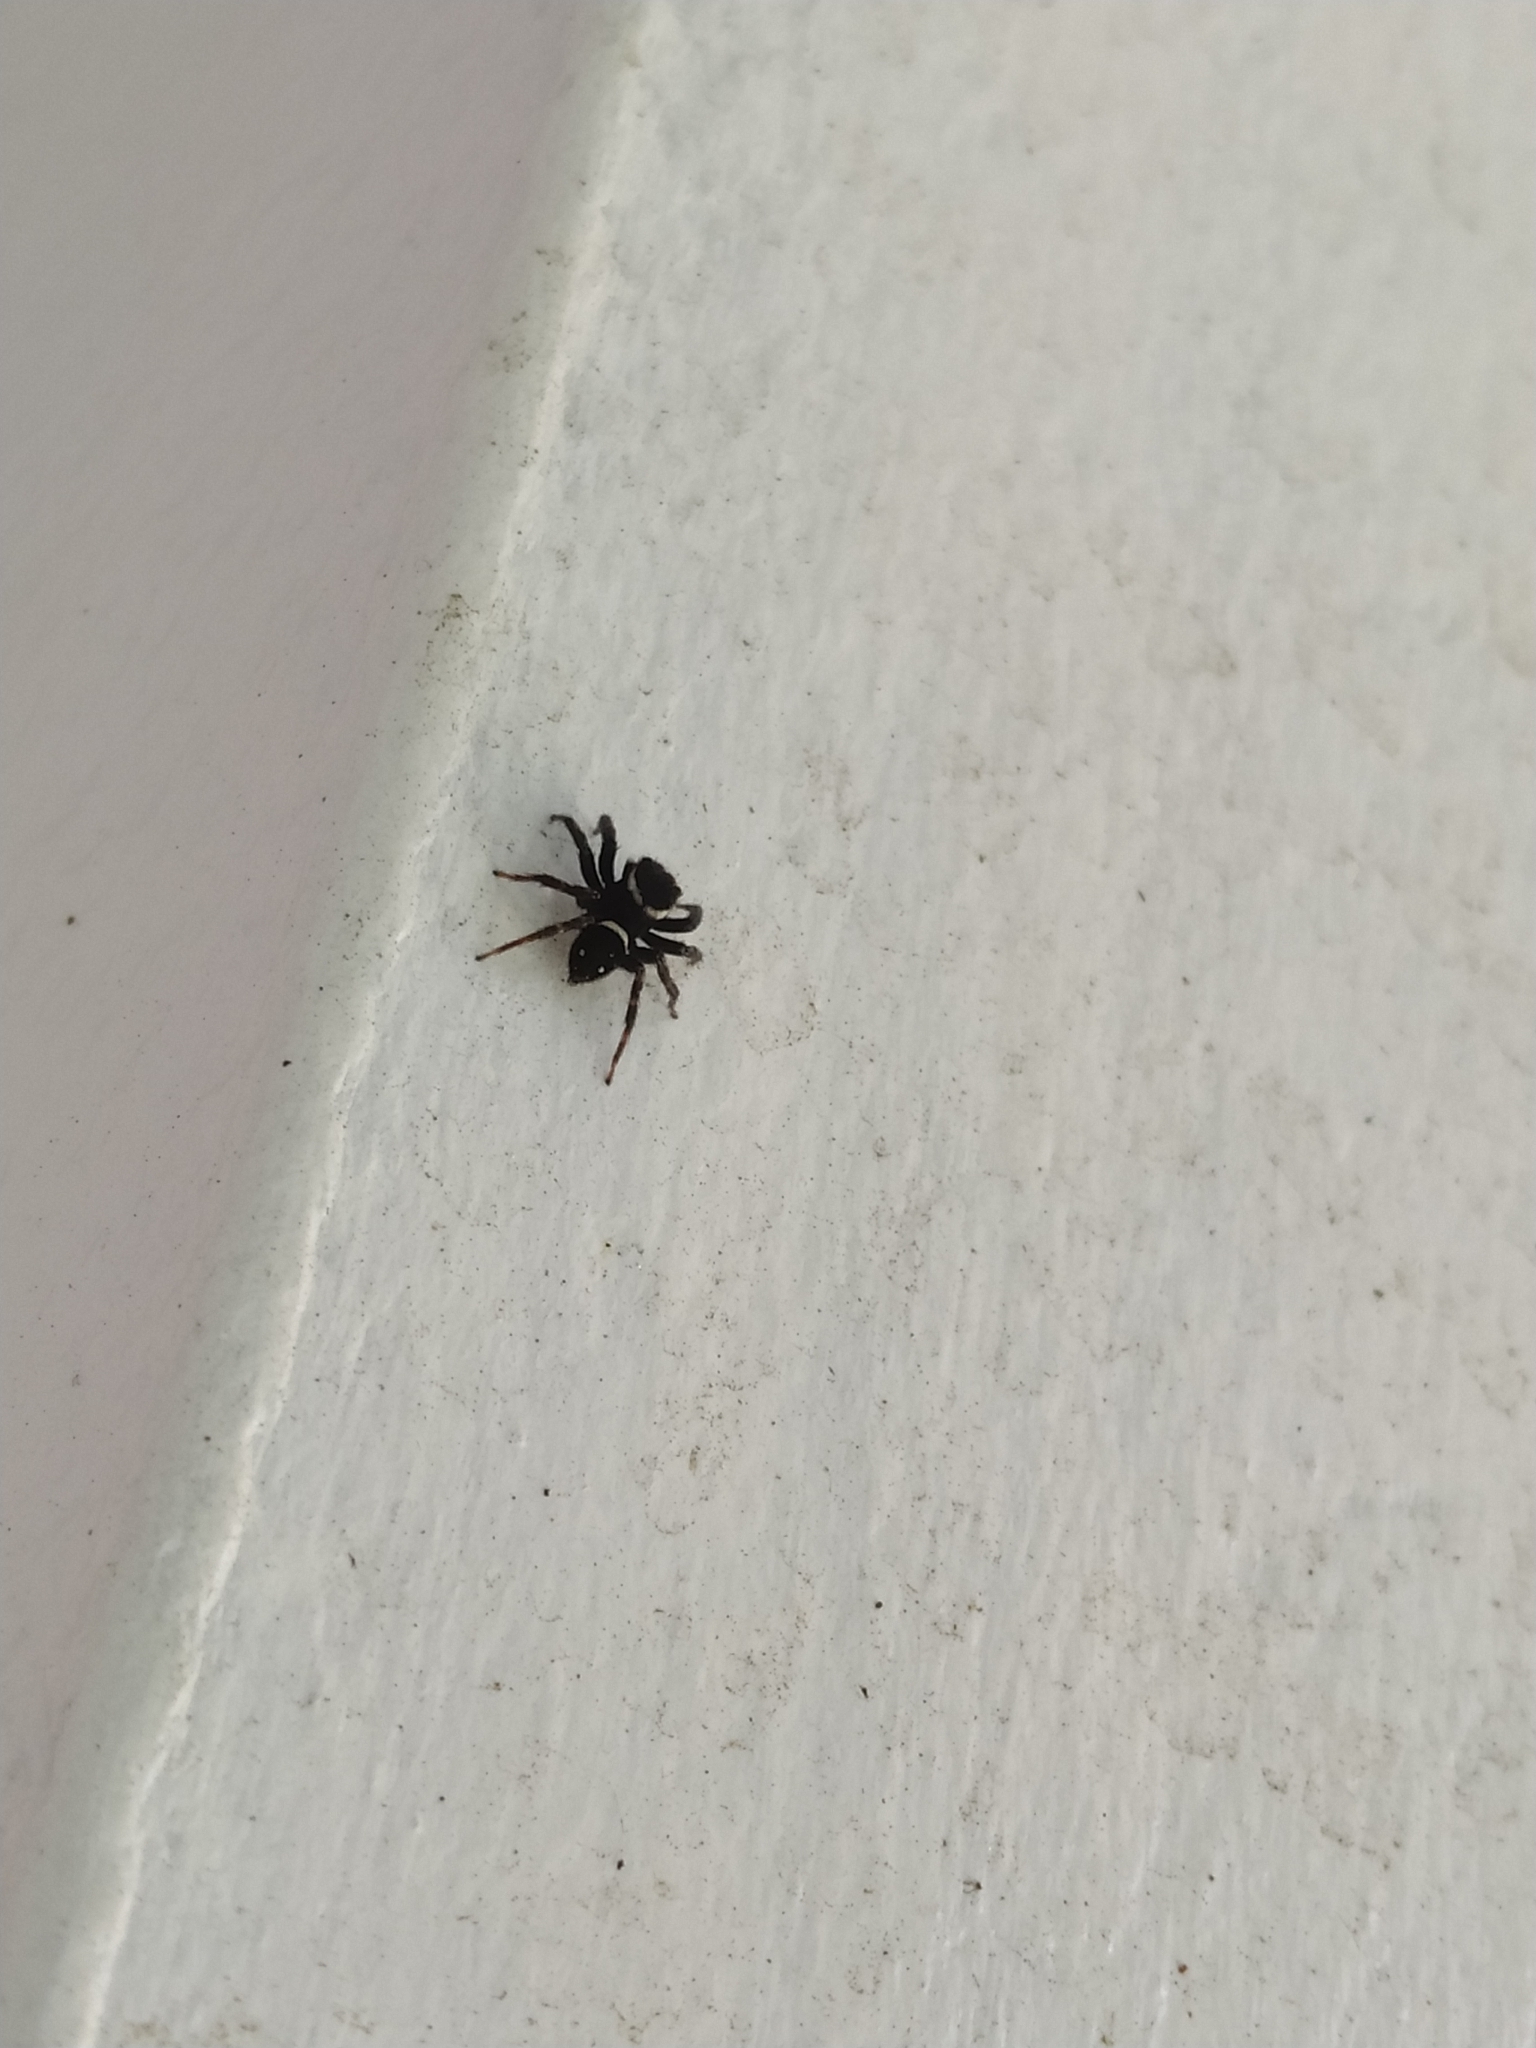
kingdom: Animalia
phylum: Arthropoda
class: Arachnida
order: Araneae
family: Salticidae
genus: Hasarius
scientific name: Hasarius adansoni
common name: Jumping spider
